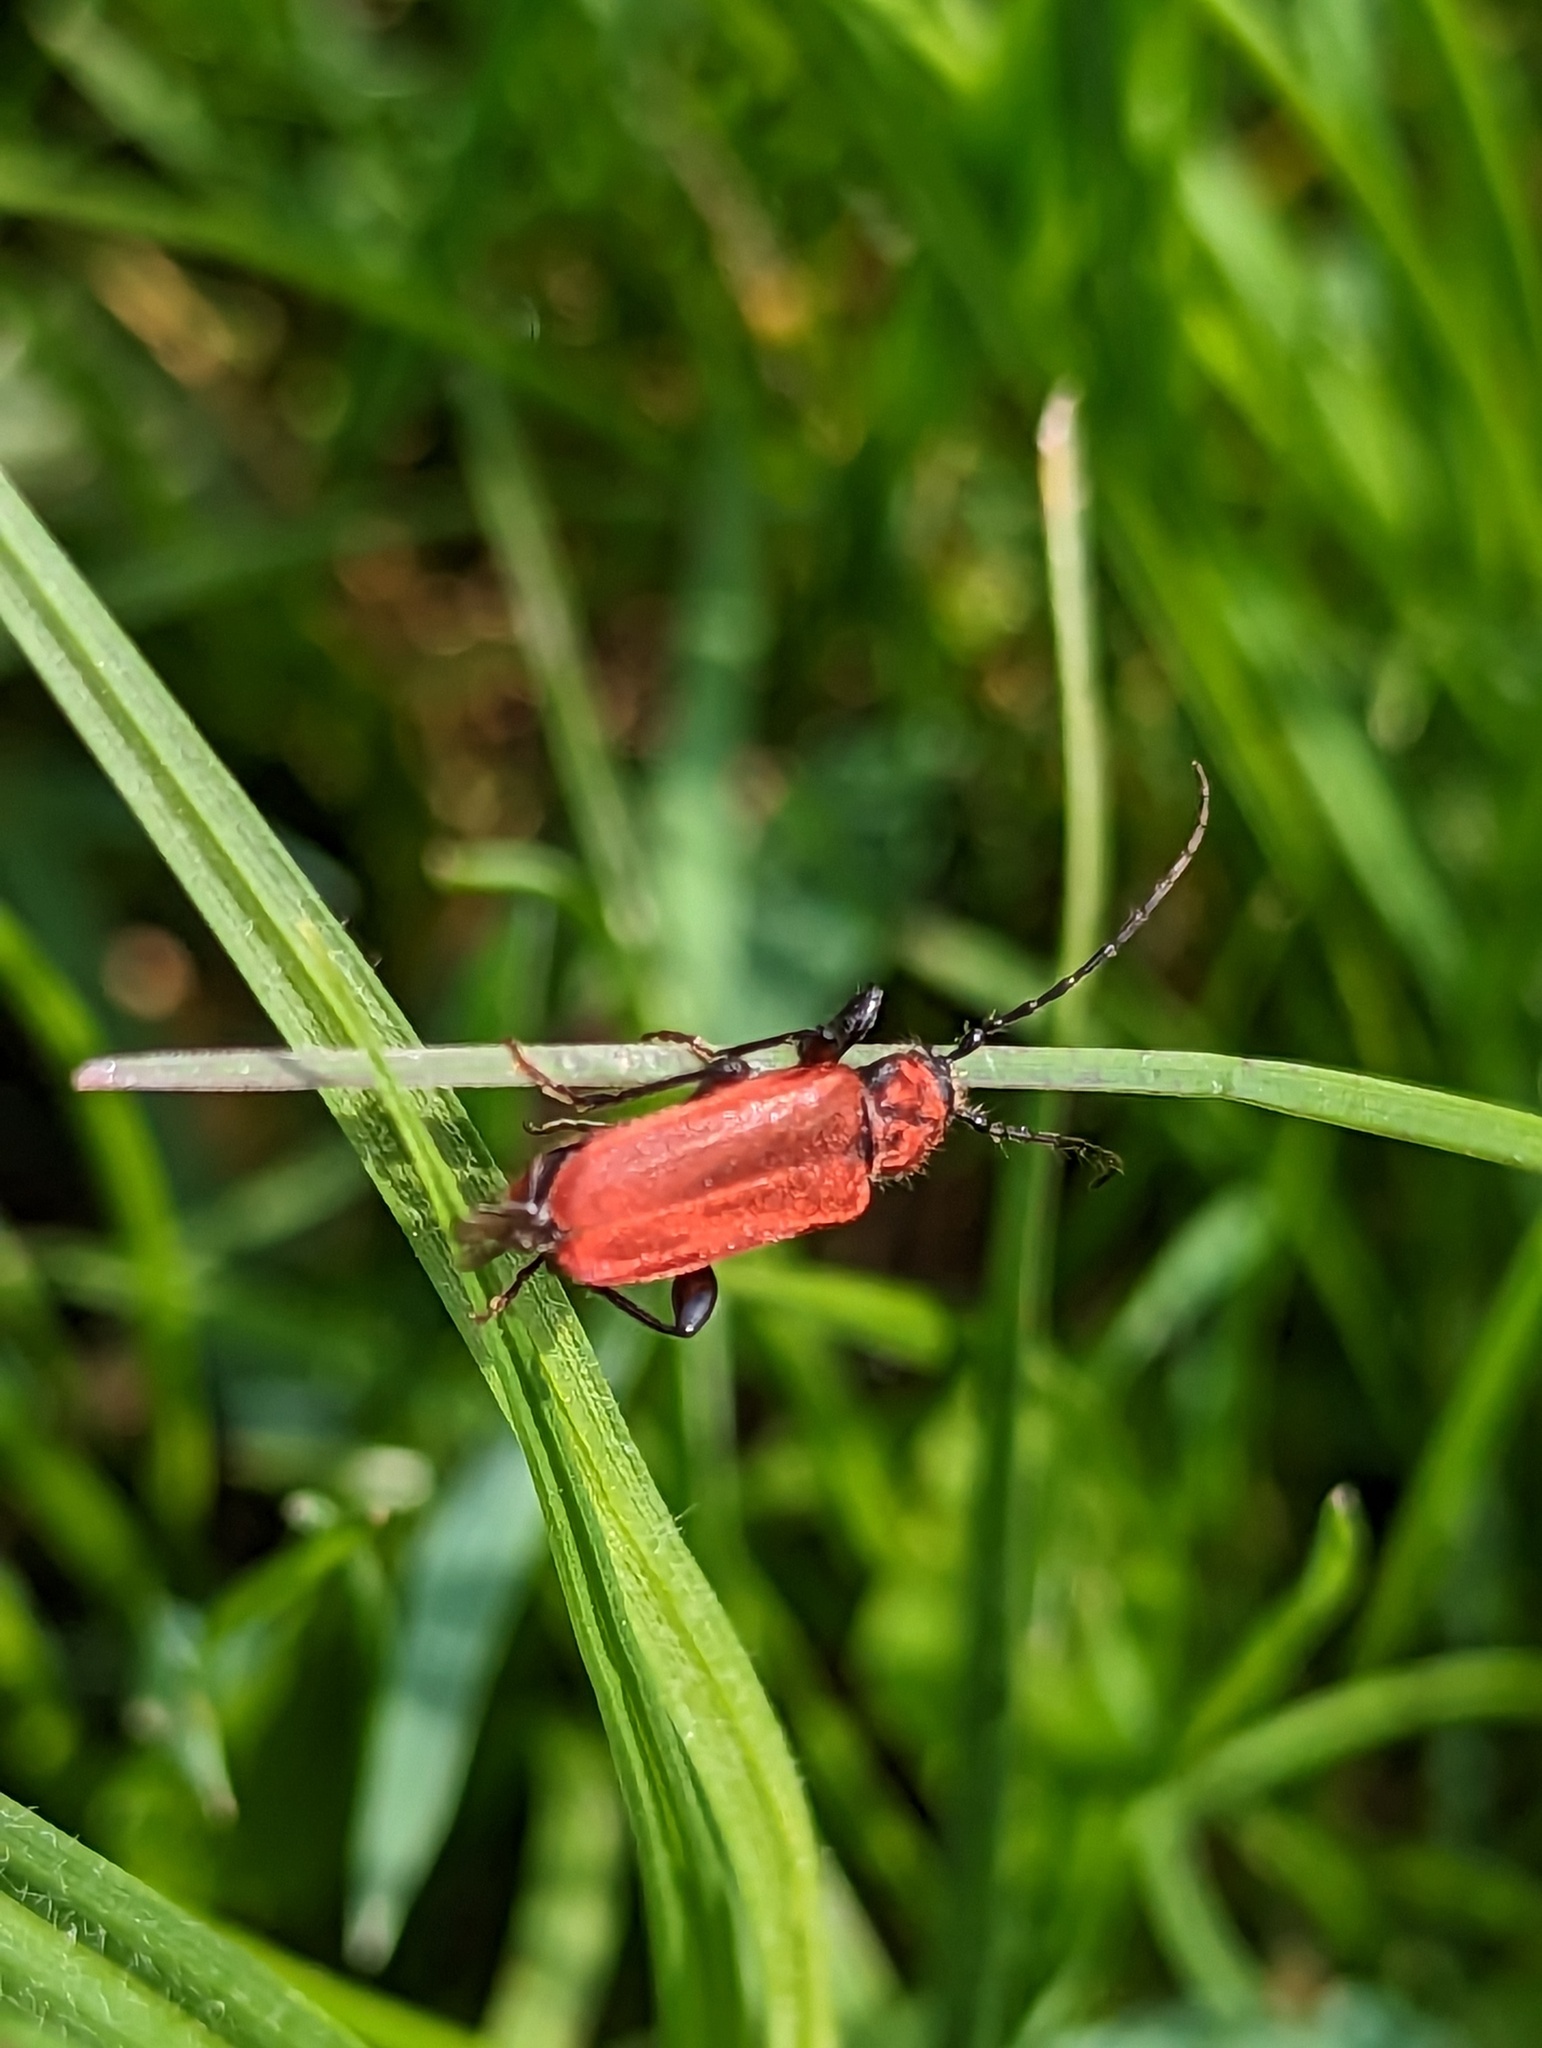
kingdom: Animalia
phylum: Arthropoda
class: Insecta
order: Coleoptera
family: Cerambycidae
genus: Pyrrhidium
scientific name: Pyrrhidium sanguineum
